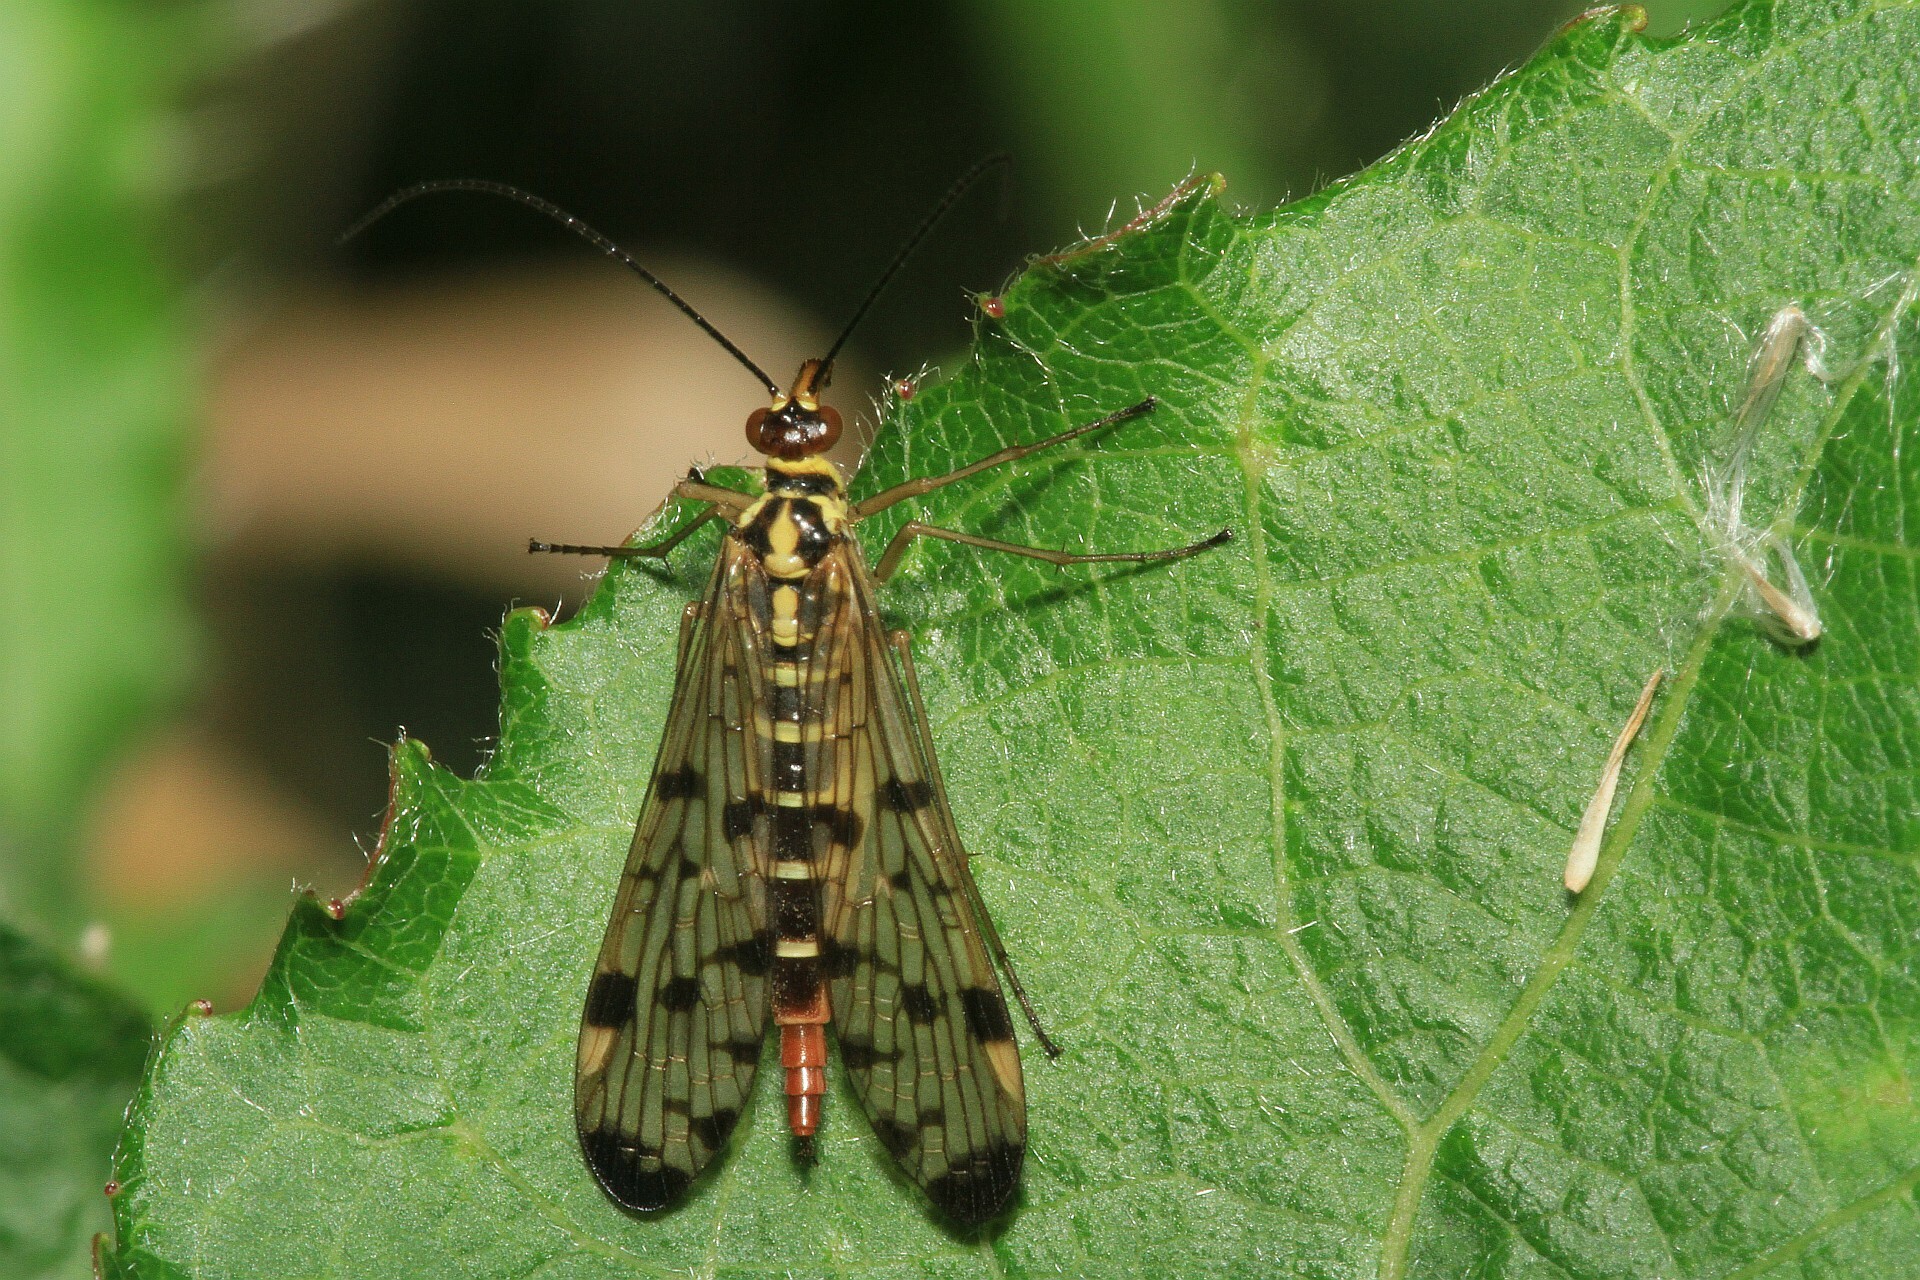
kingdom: Animalia
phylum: Arthropoda
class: Insecta
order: Mecoptera
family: Panorpidae
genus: Panorpa
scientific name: Panorpa germanica
